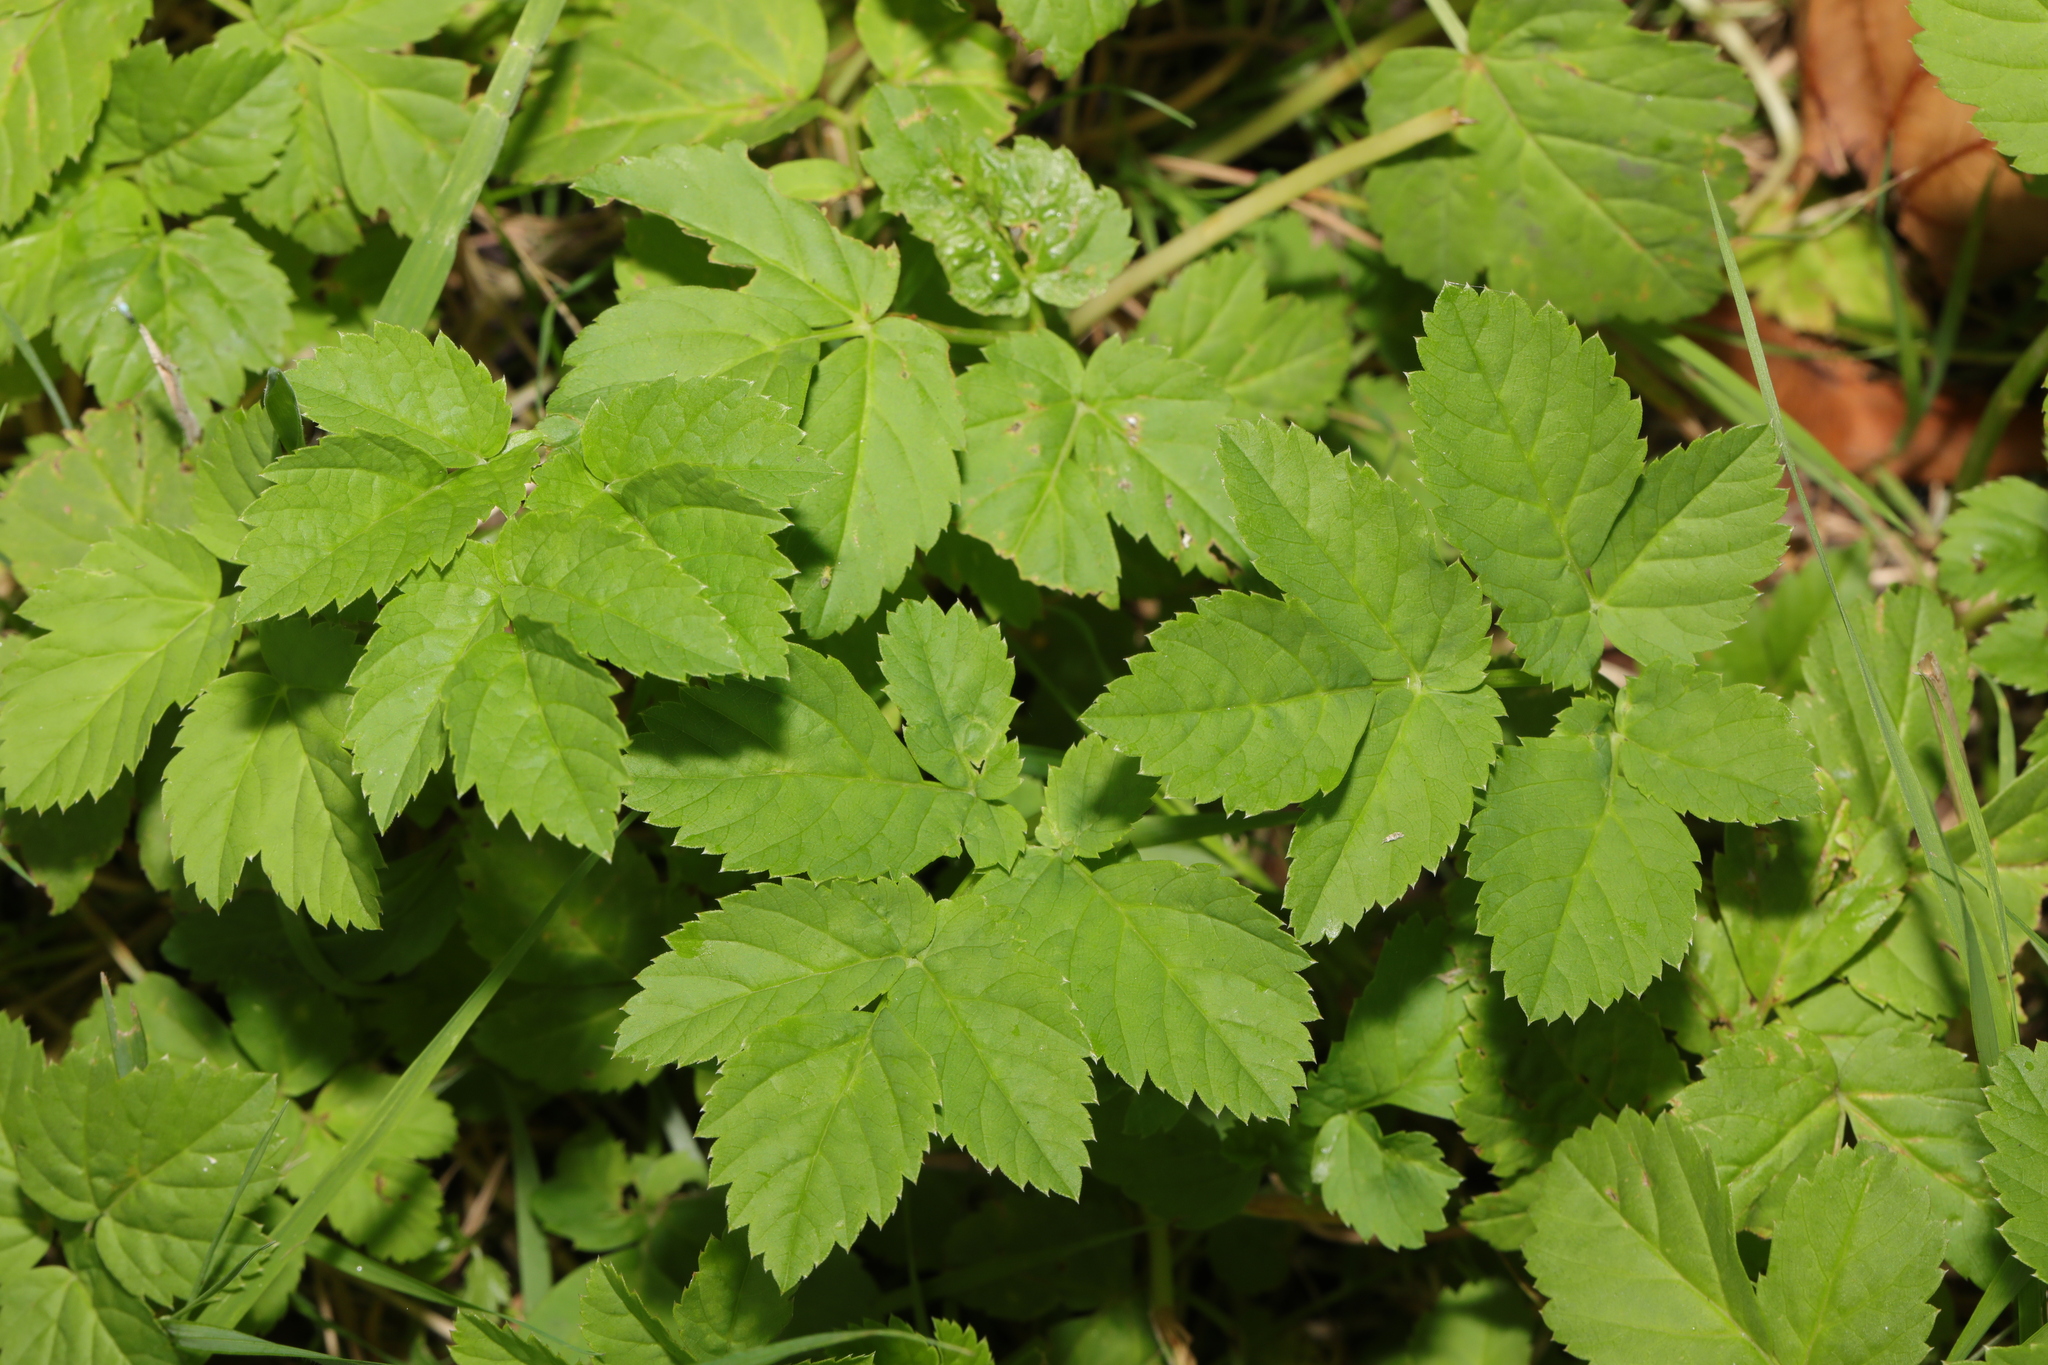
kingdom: Plantae
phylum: Tracheophyta
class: Magnoliopsida
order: Apiales
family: Apiaceae
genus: Aegopodium
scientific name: Aegopodium podagraria
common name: Ground-elder
